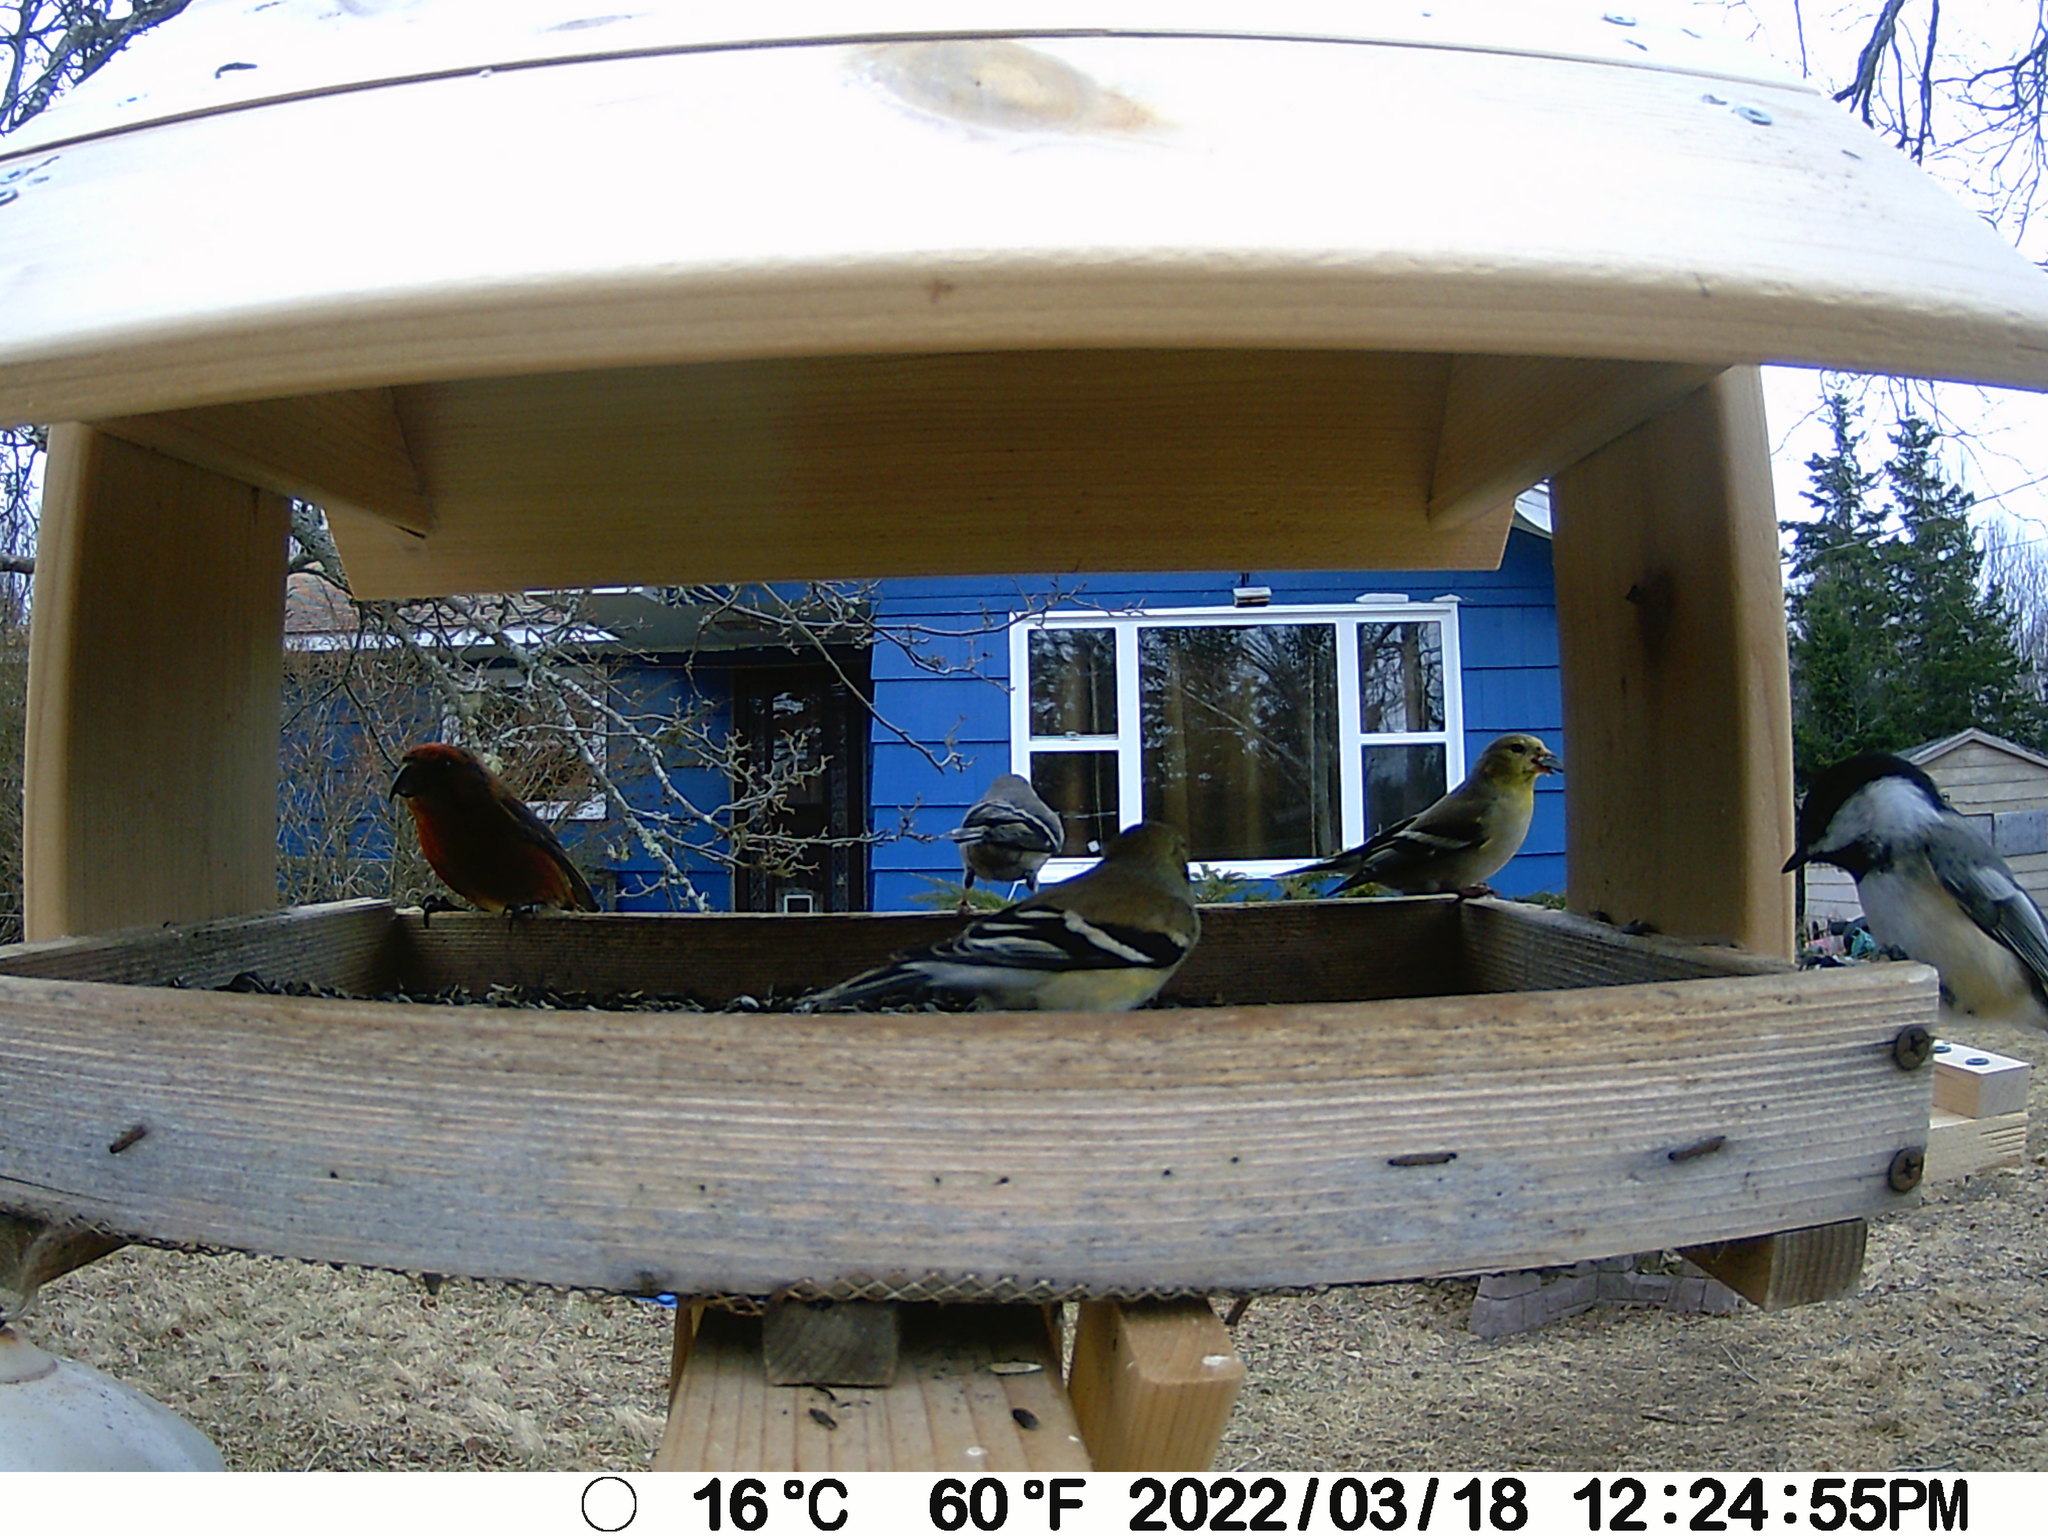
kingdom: Animalia
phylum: Chordata
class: Aves
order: Passeriformes
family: Fringillidae
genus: Loxia
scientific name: Loxia curvirostra
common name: Red crossbill
